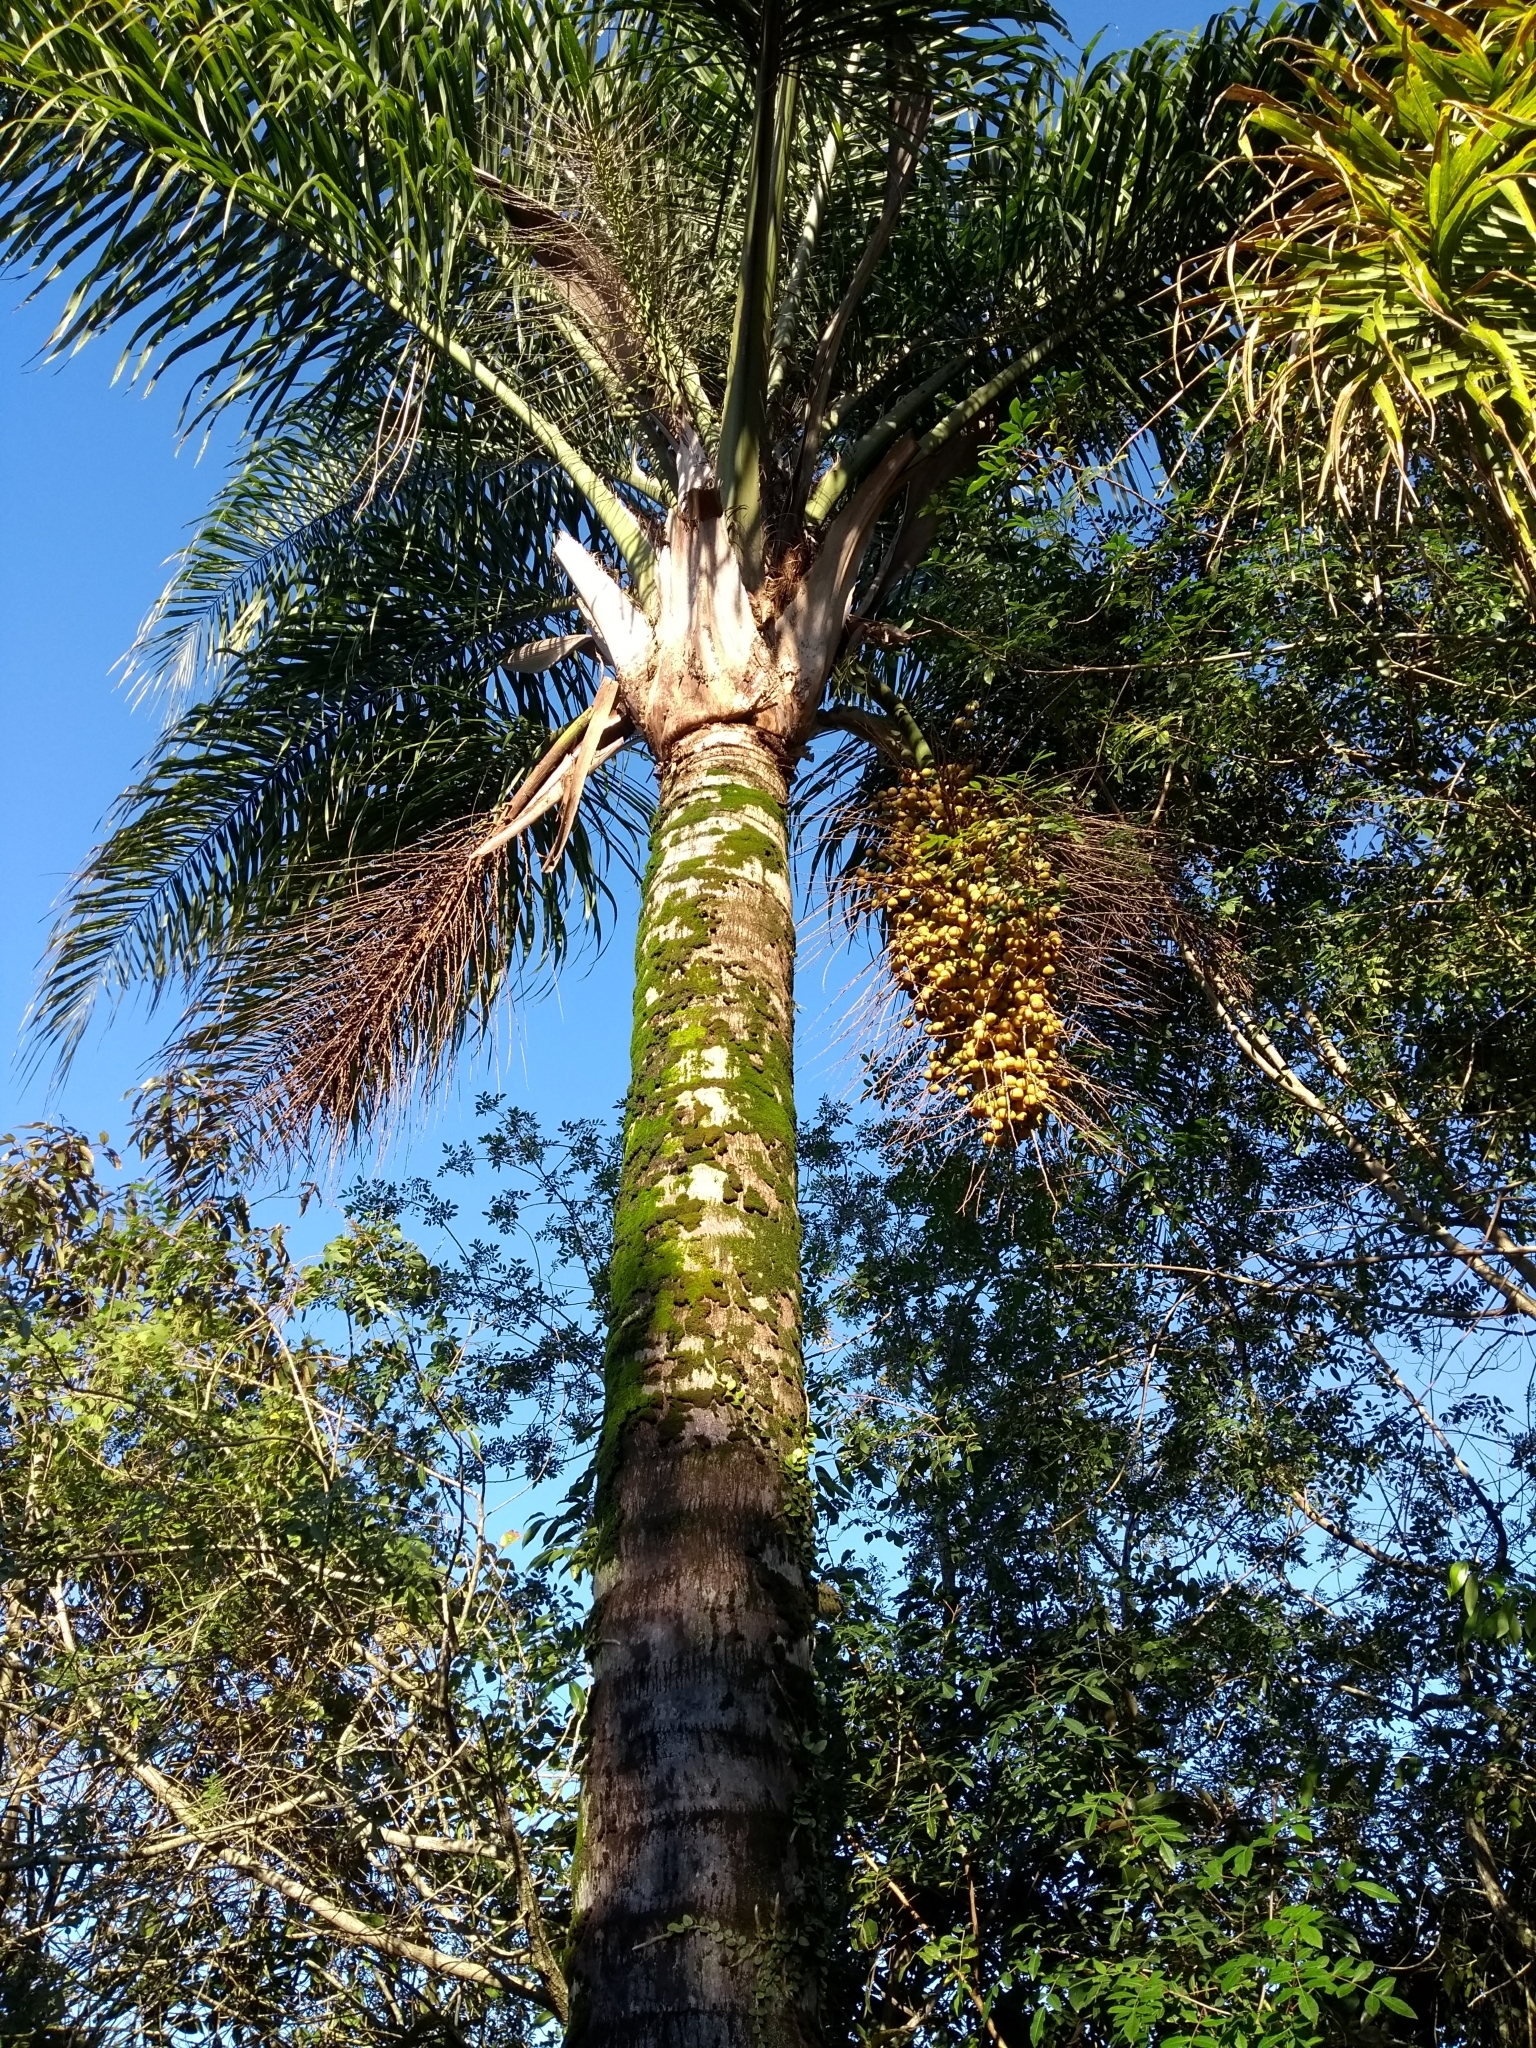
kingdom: Plantae
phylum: Tracheophyta
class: Liliopsida
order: Arecales
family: Arecaceae
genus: Syagrus
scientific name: Syagrus romanzoffiana
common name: Queen palm
